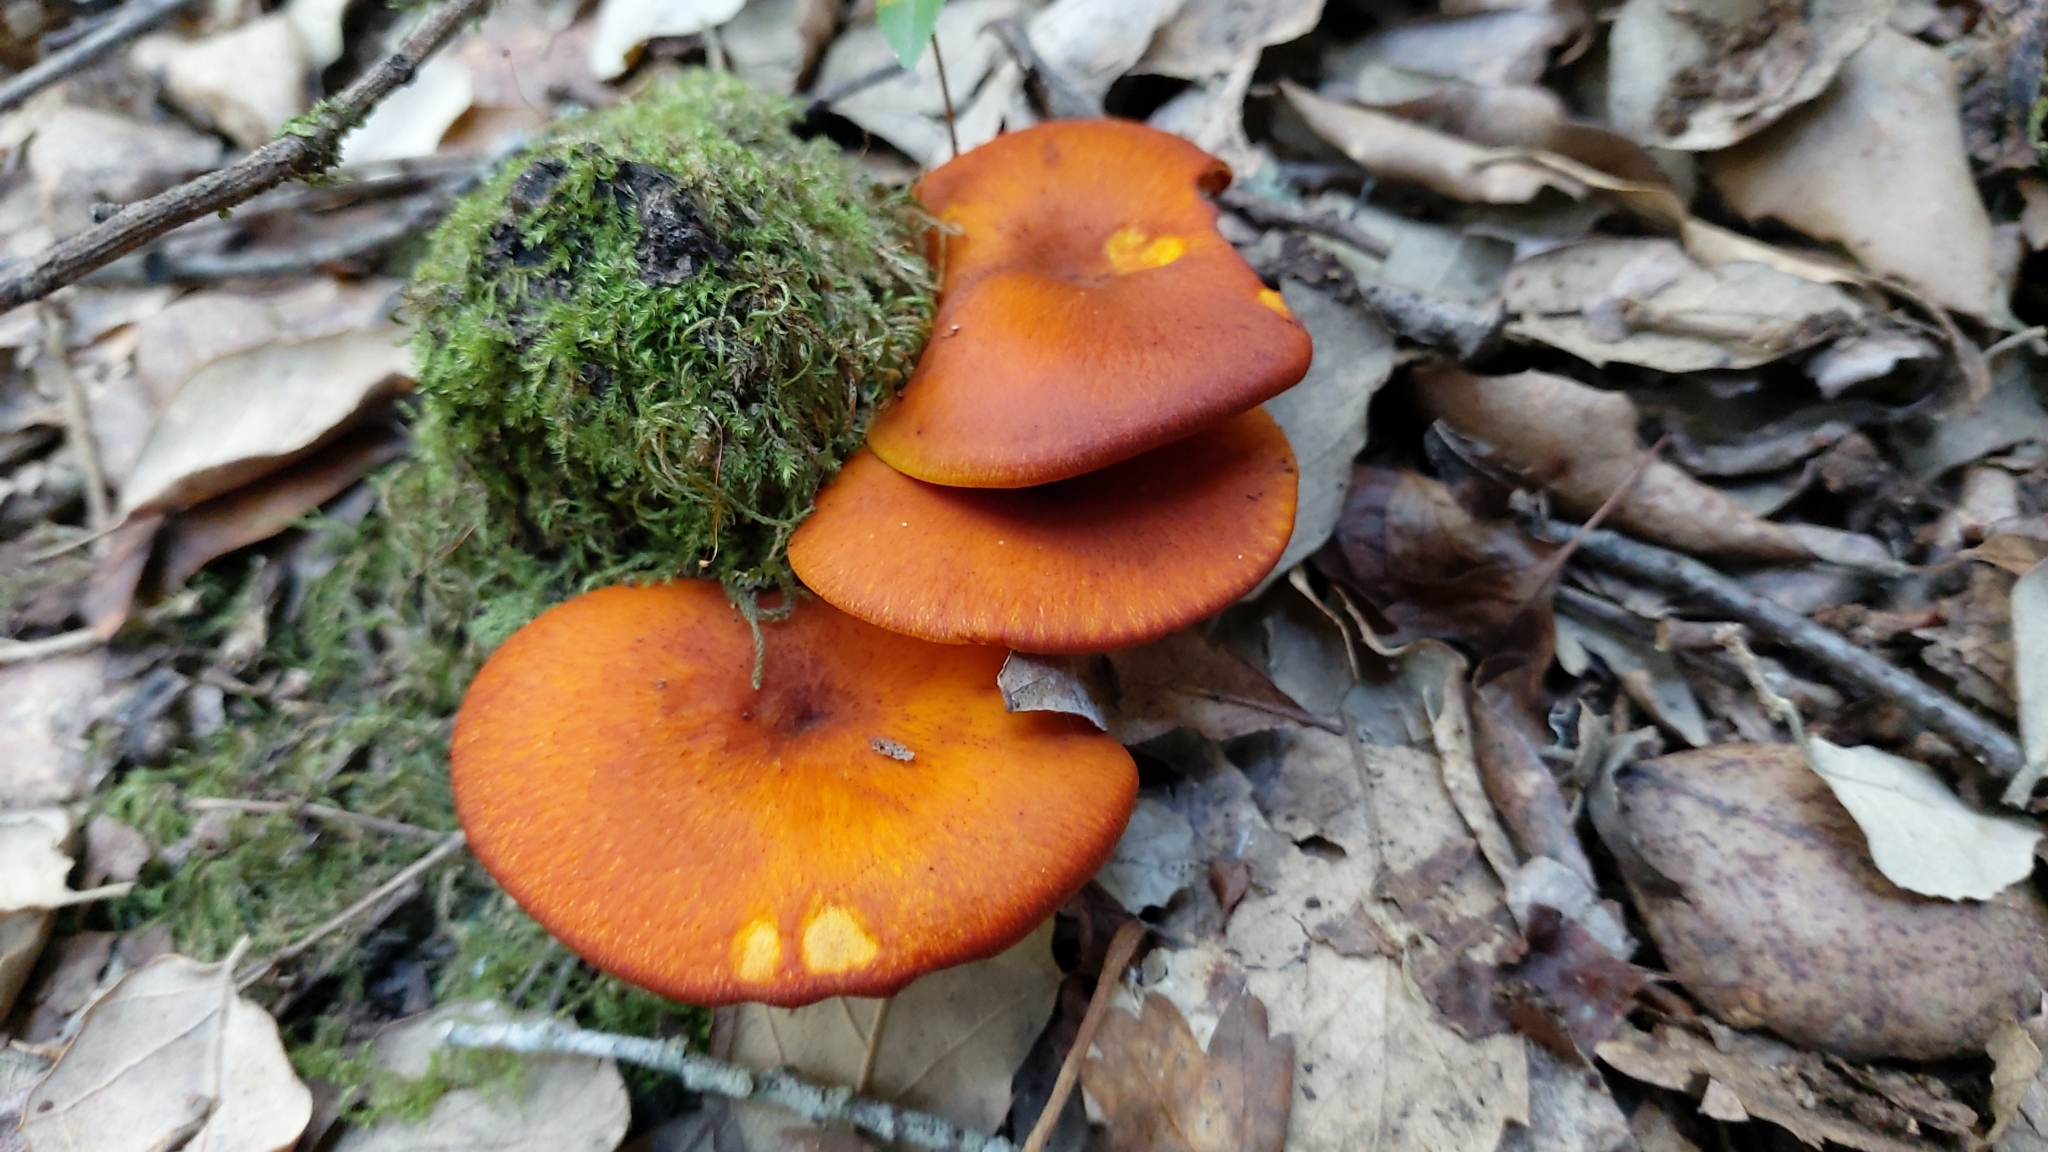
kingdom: Fungi
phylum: Basidiomycota
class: Agaricomycetes
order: Agaricales
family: Omphalotaceae
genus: Omphalotus
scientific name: Omphalotus olearius
